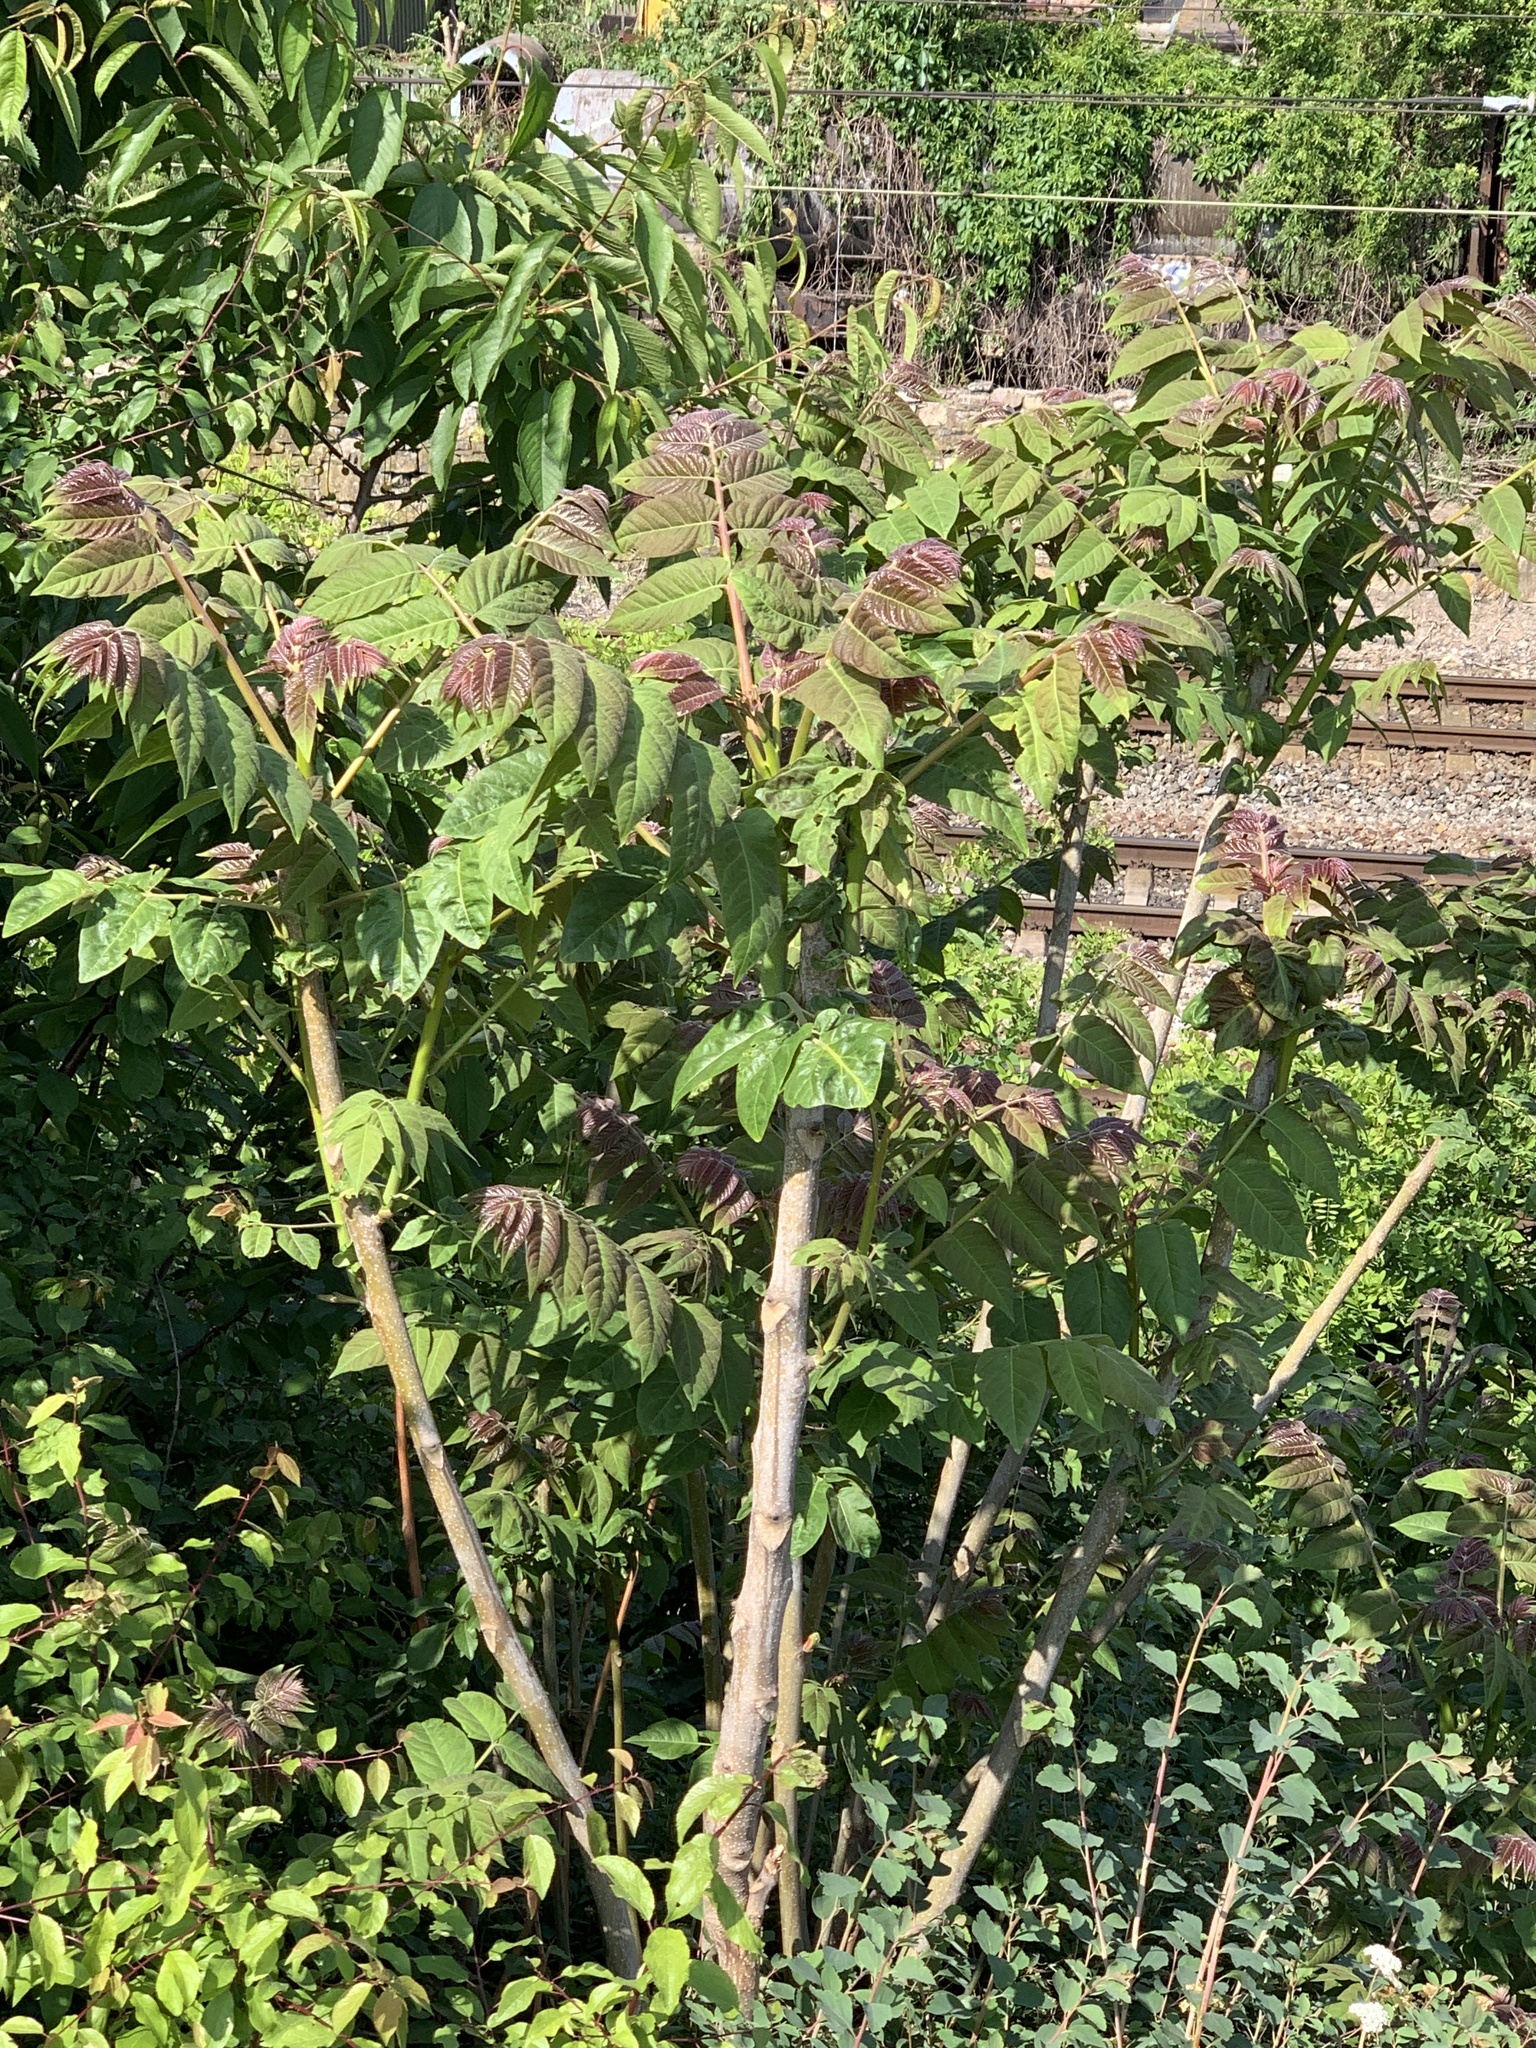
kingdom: Plantae
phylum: Tracheophyta
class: Magnoliopsida
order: Sapindales
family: Simaroubaceae
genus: Ailanthus
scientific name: Ailanthus altissima
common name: Tree-of-heaven
